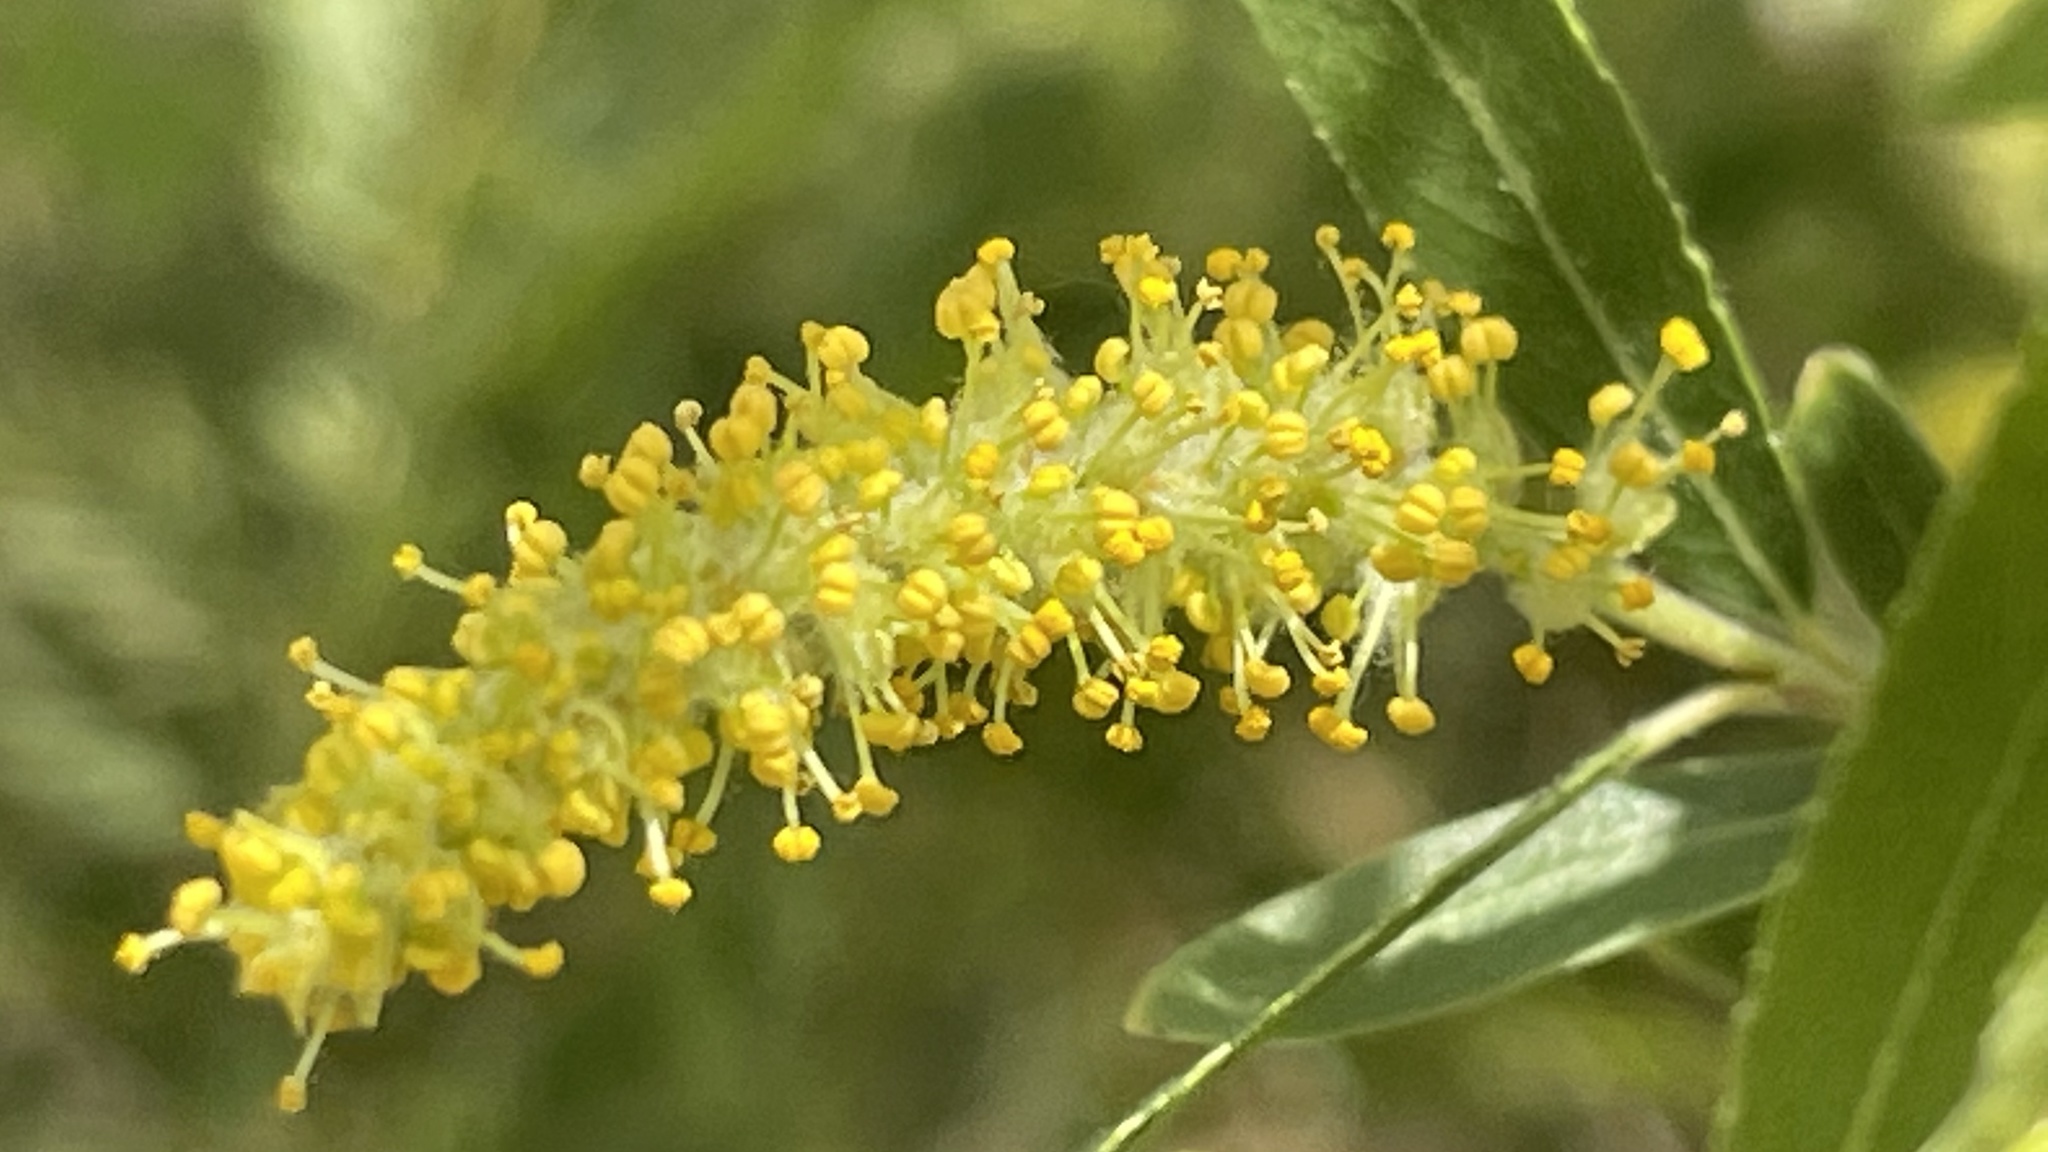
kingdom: Plantae
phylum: Tracheophyta
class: Magnoliopsida
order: Malpighiales
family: Salicaceae
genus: Salix
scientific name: Salix nigra
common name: Black willow
